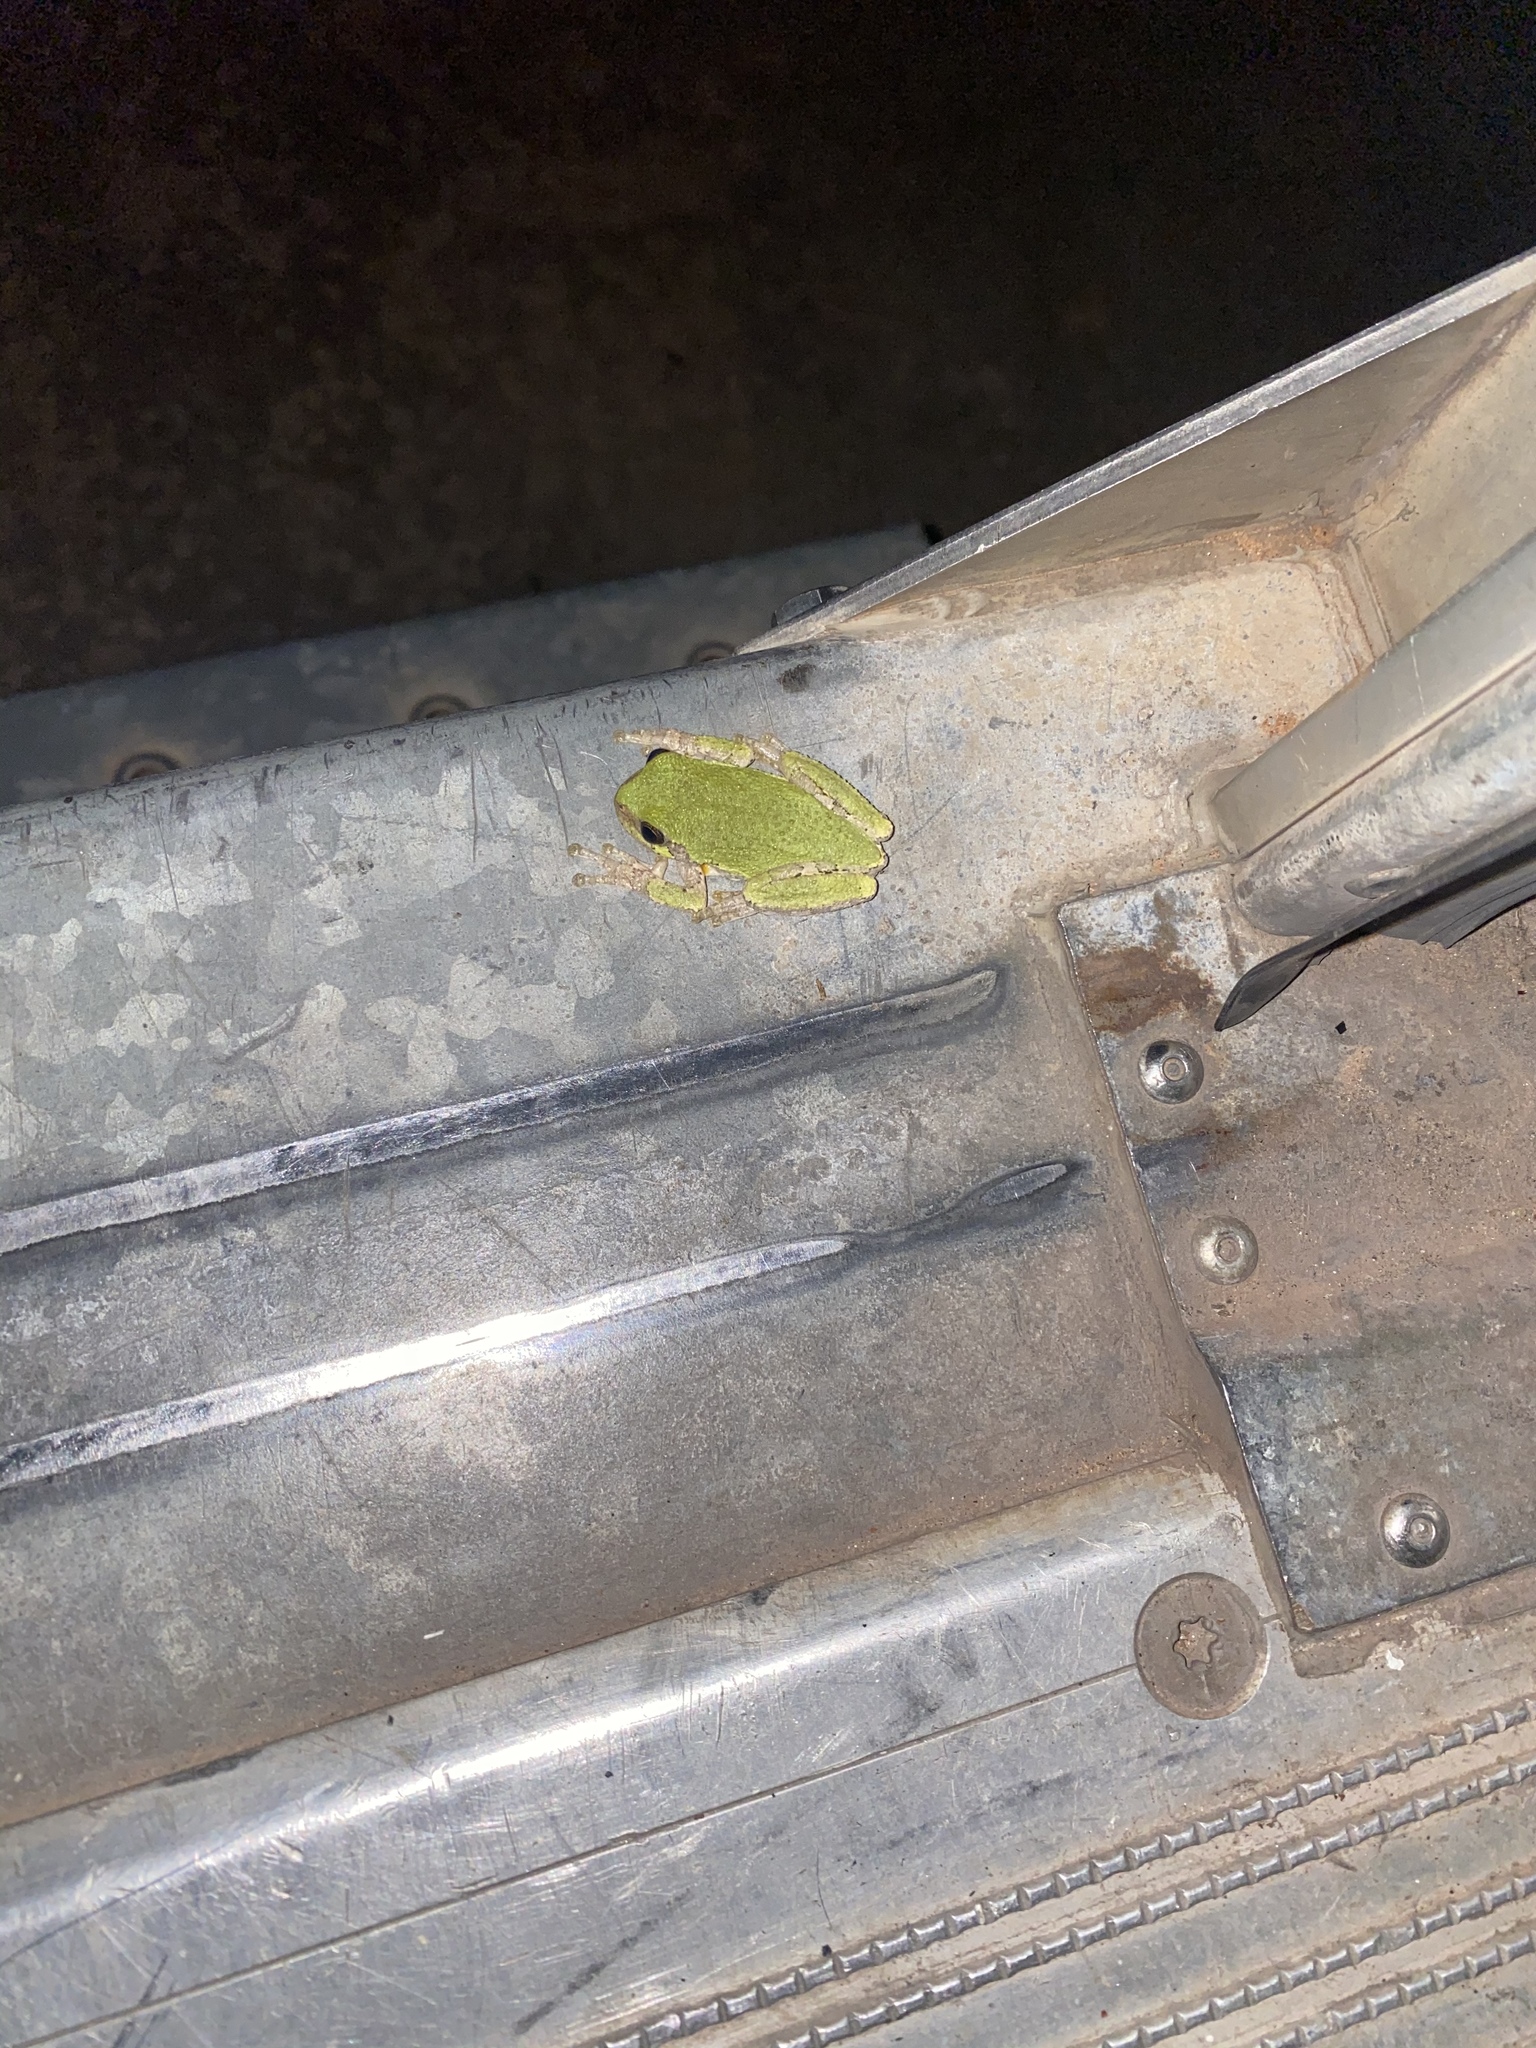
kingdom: Animalia
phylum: Chordata
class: Amphibia
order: Anura
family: Hylidae
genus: Hyla
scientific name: Hyla
